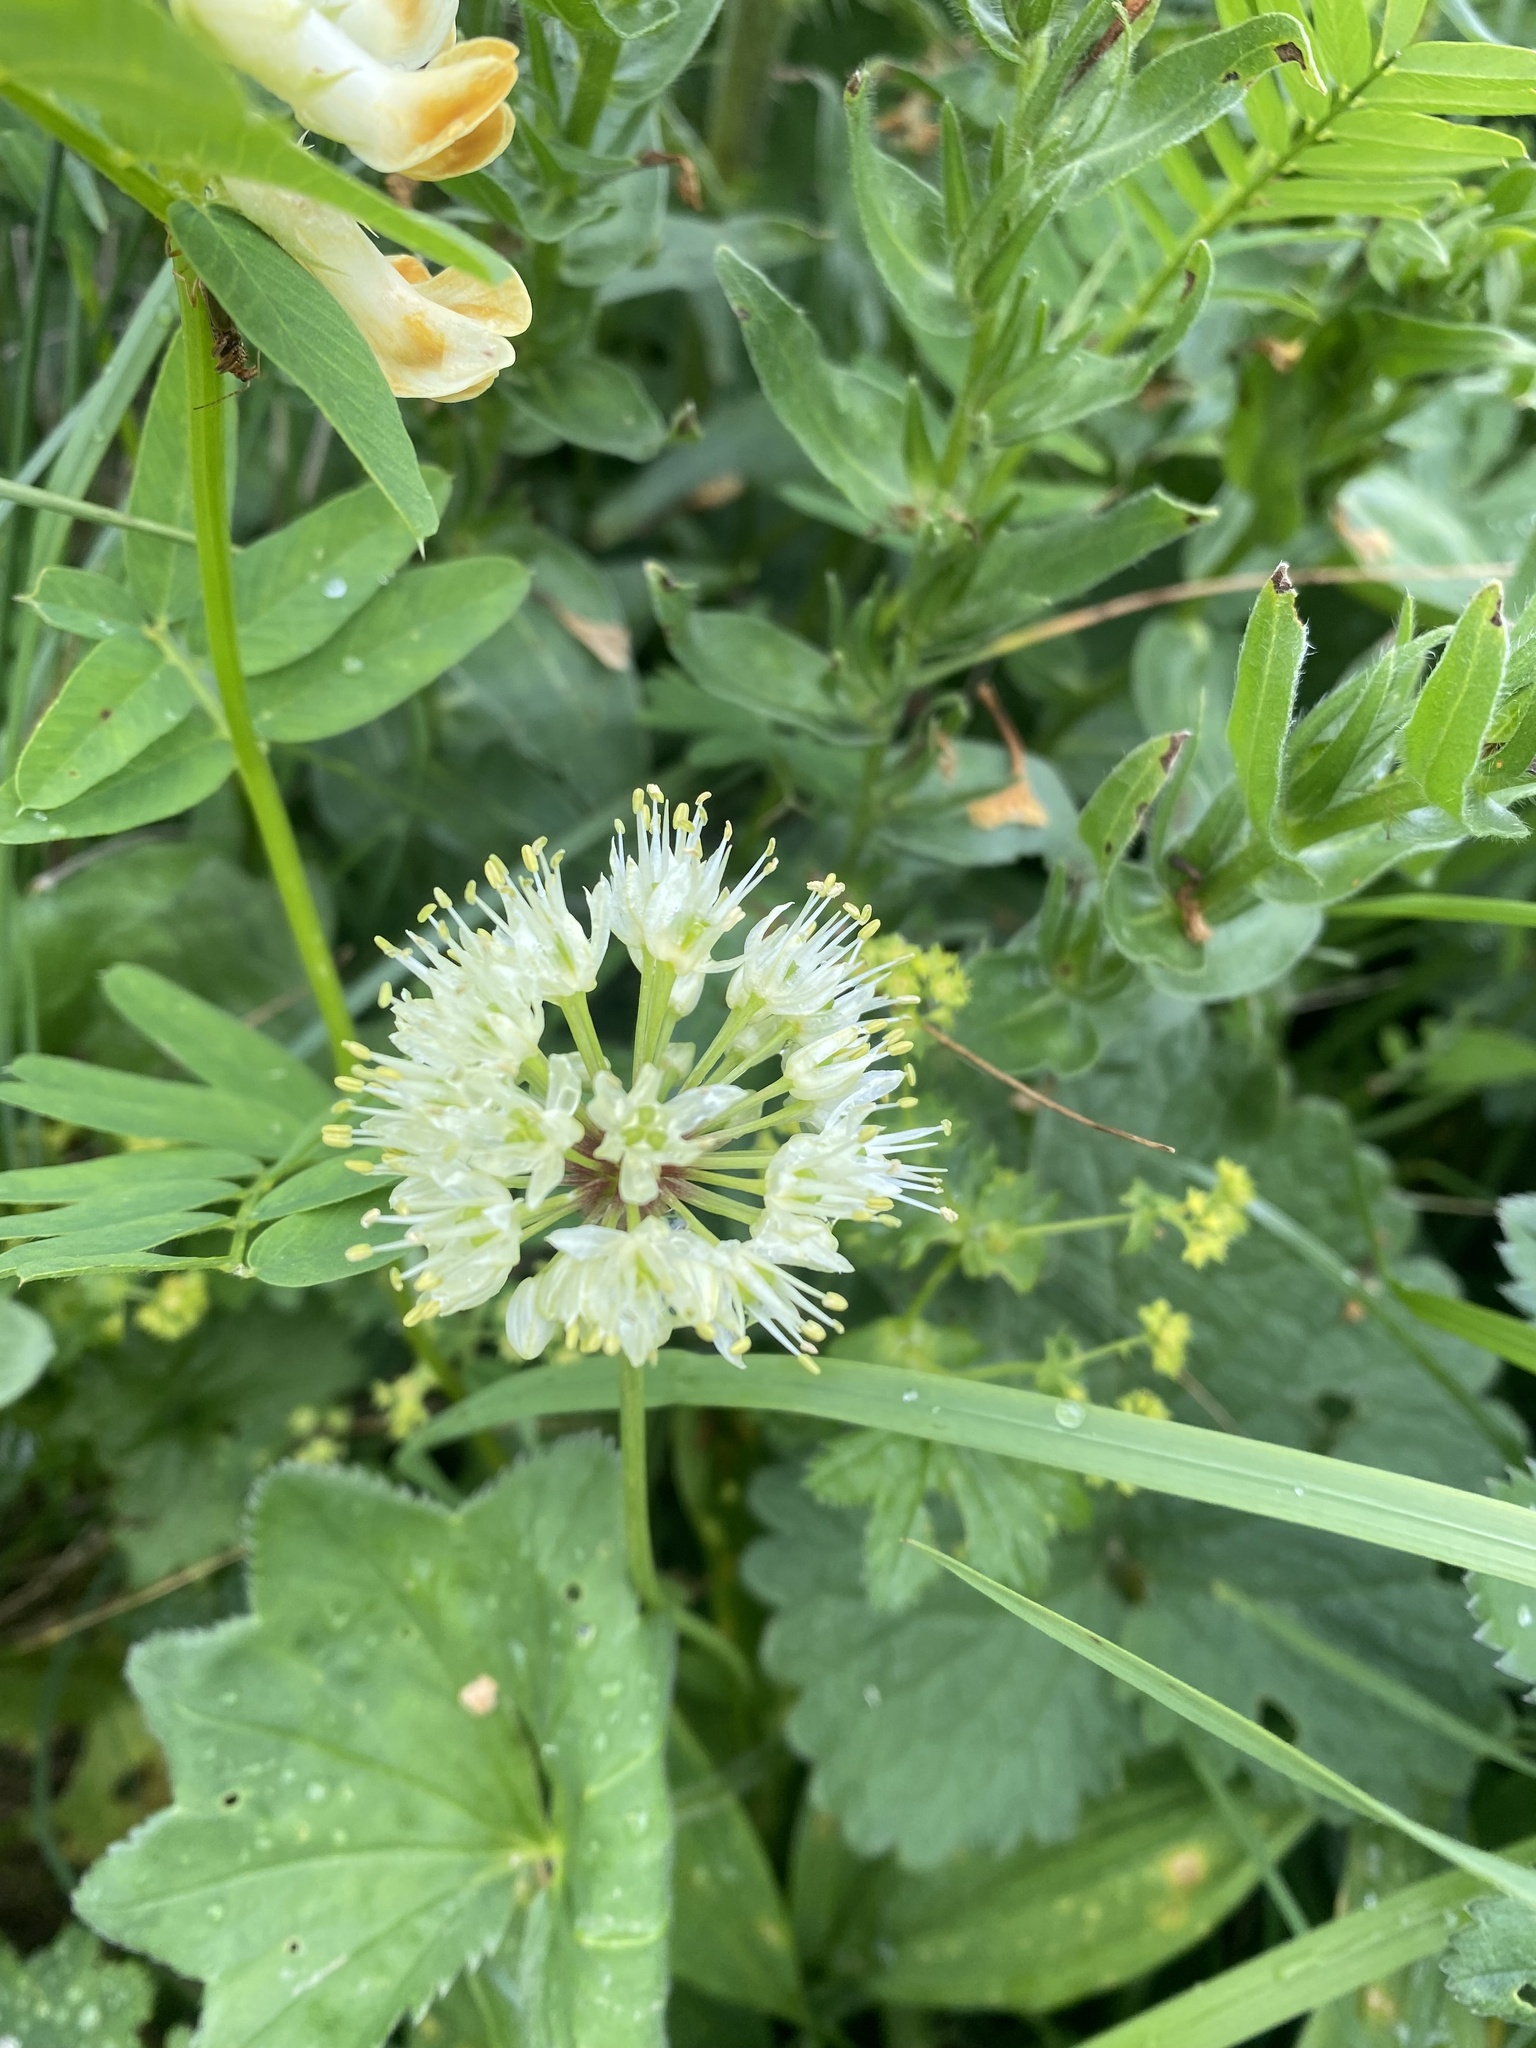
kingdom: Plantae
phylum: Tracheophyta
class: Liliopsida
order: Asparagales
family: Amaryllidaceae
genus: Allium
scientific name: Allium victorialis
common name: Alpine leek
